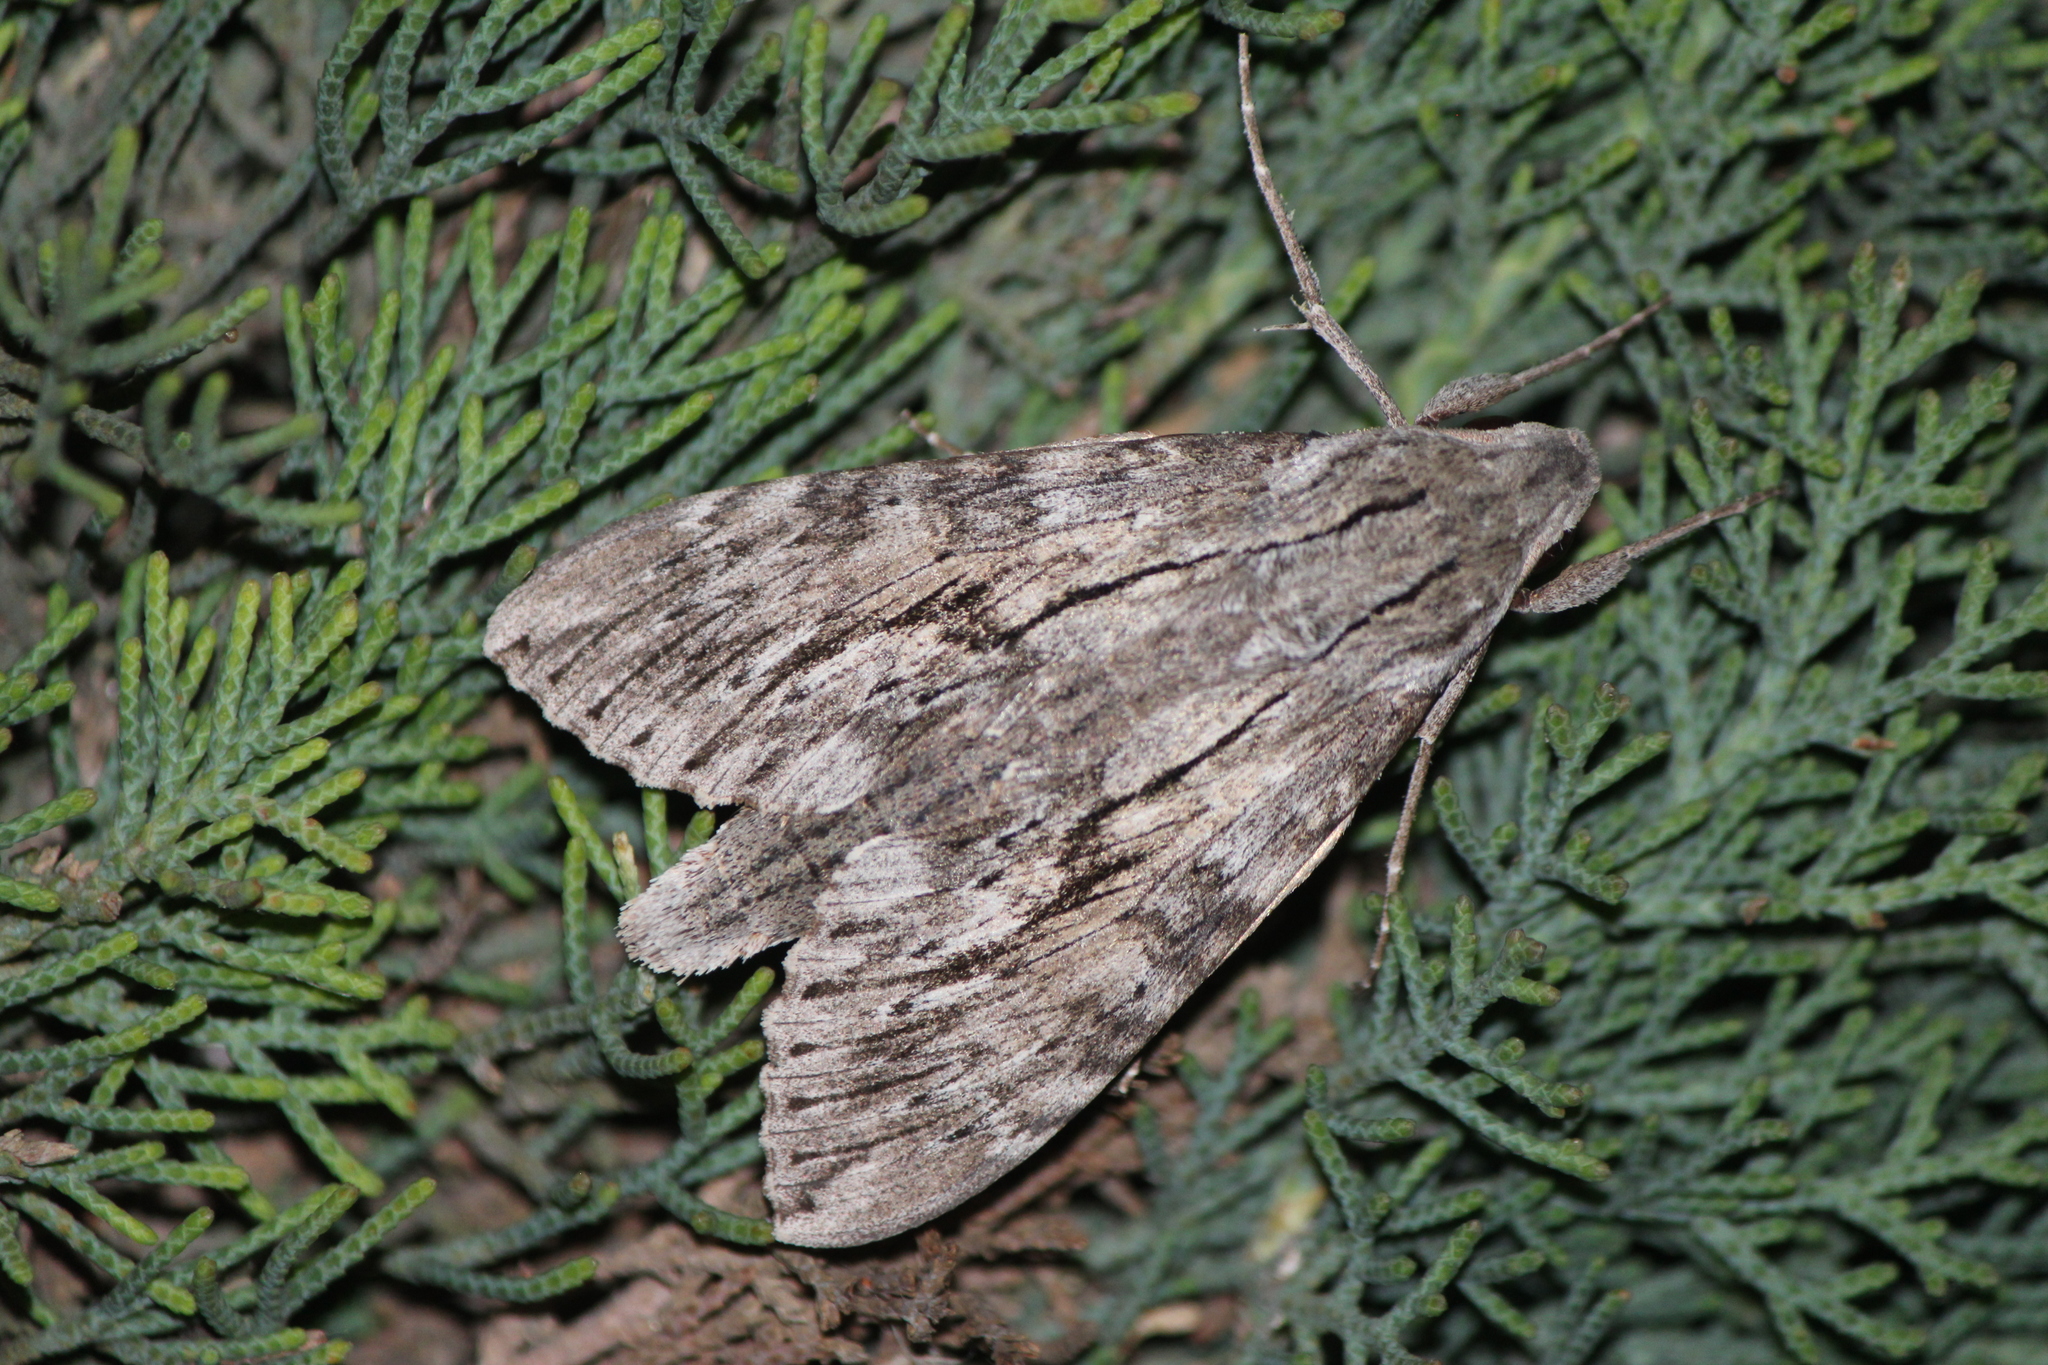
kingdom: Animalia
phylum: Arthropoda
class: Insecta
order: Lepidoptera
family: Sphingidae
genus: Erinnyis
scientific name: Erinnyis ello
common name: Ello sphinx
